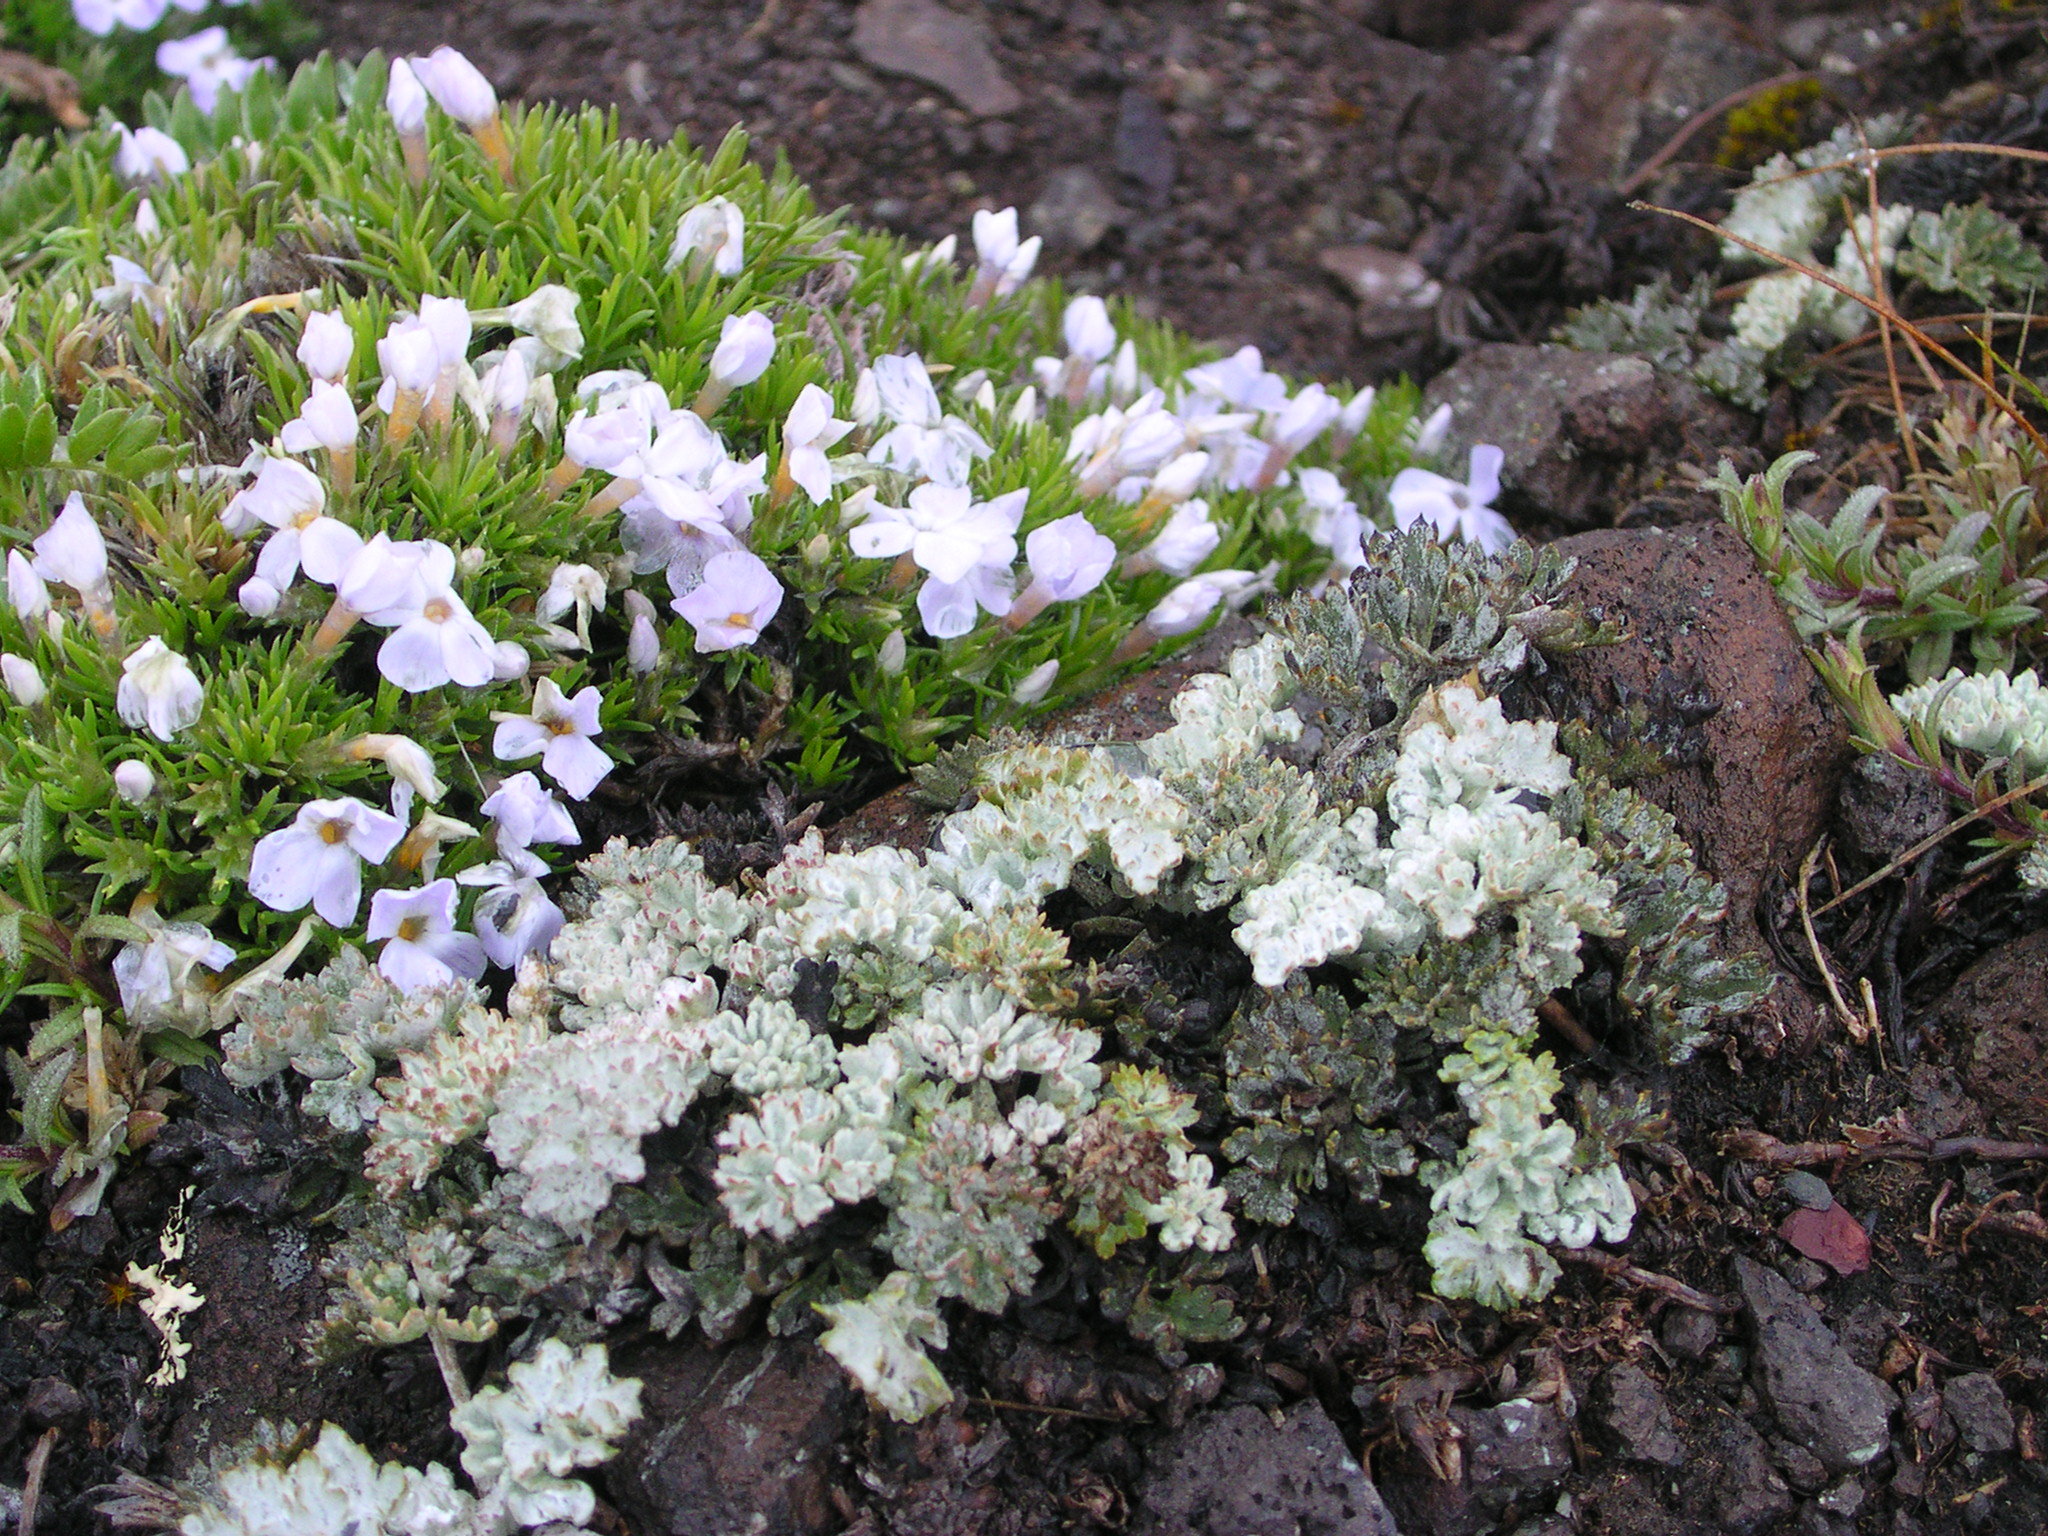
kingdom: Plantae
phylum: Tracheophyta
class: Magnoliopsida
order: Ericales
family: Polemoniaceae
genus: Phlox
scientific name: Phlox diffusa
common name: Mat phlox
